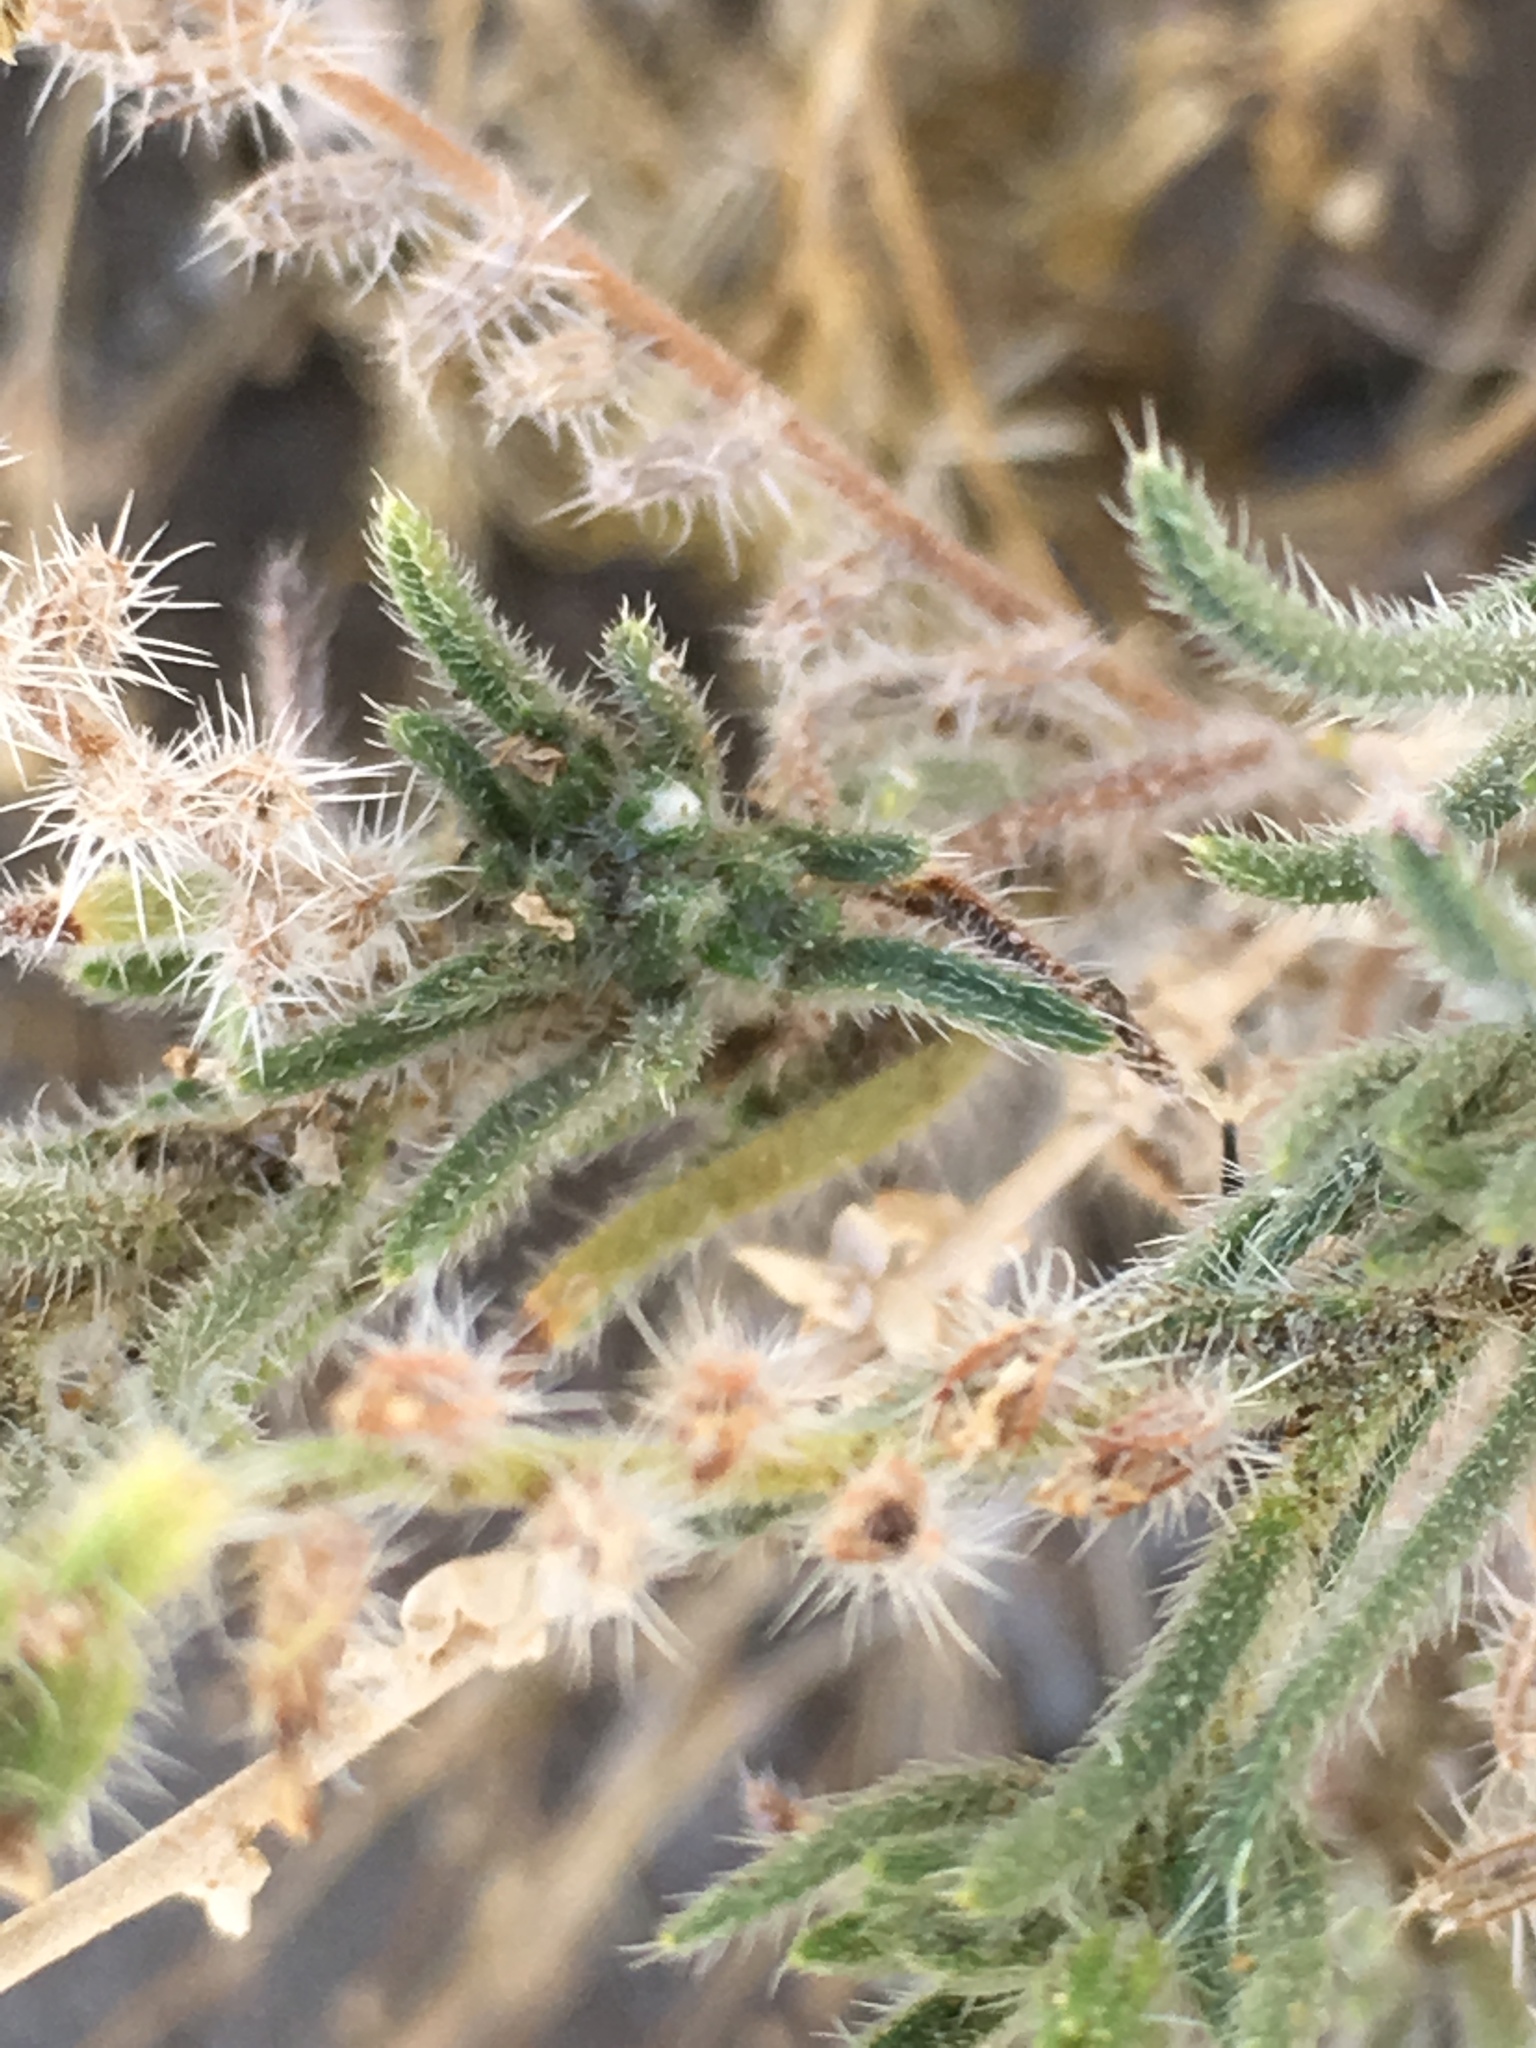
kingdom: Plantae
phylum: Tracheophyta
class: Magnoliopsida
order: Boraginales
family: Boraginaceae
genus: Johnstonella
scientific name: Johnstonella angustifolia
